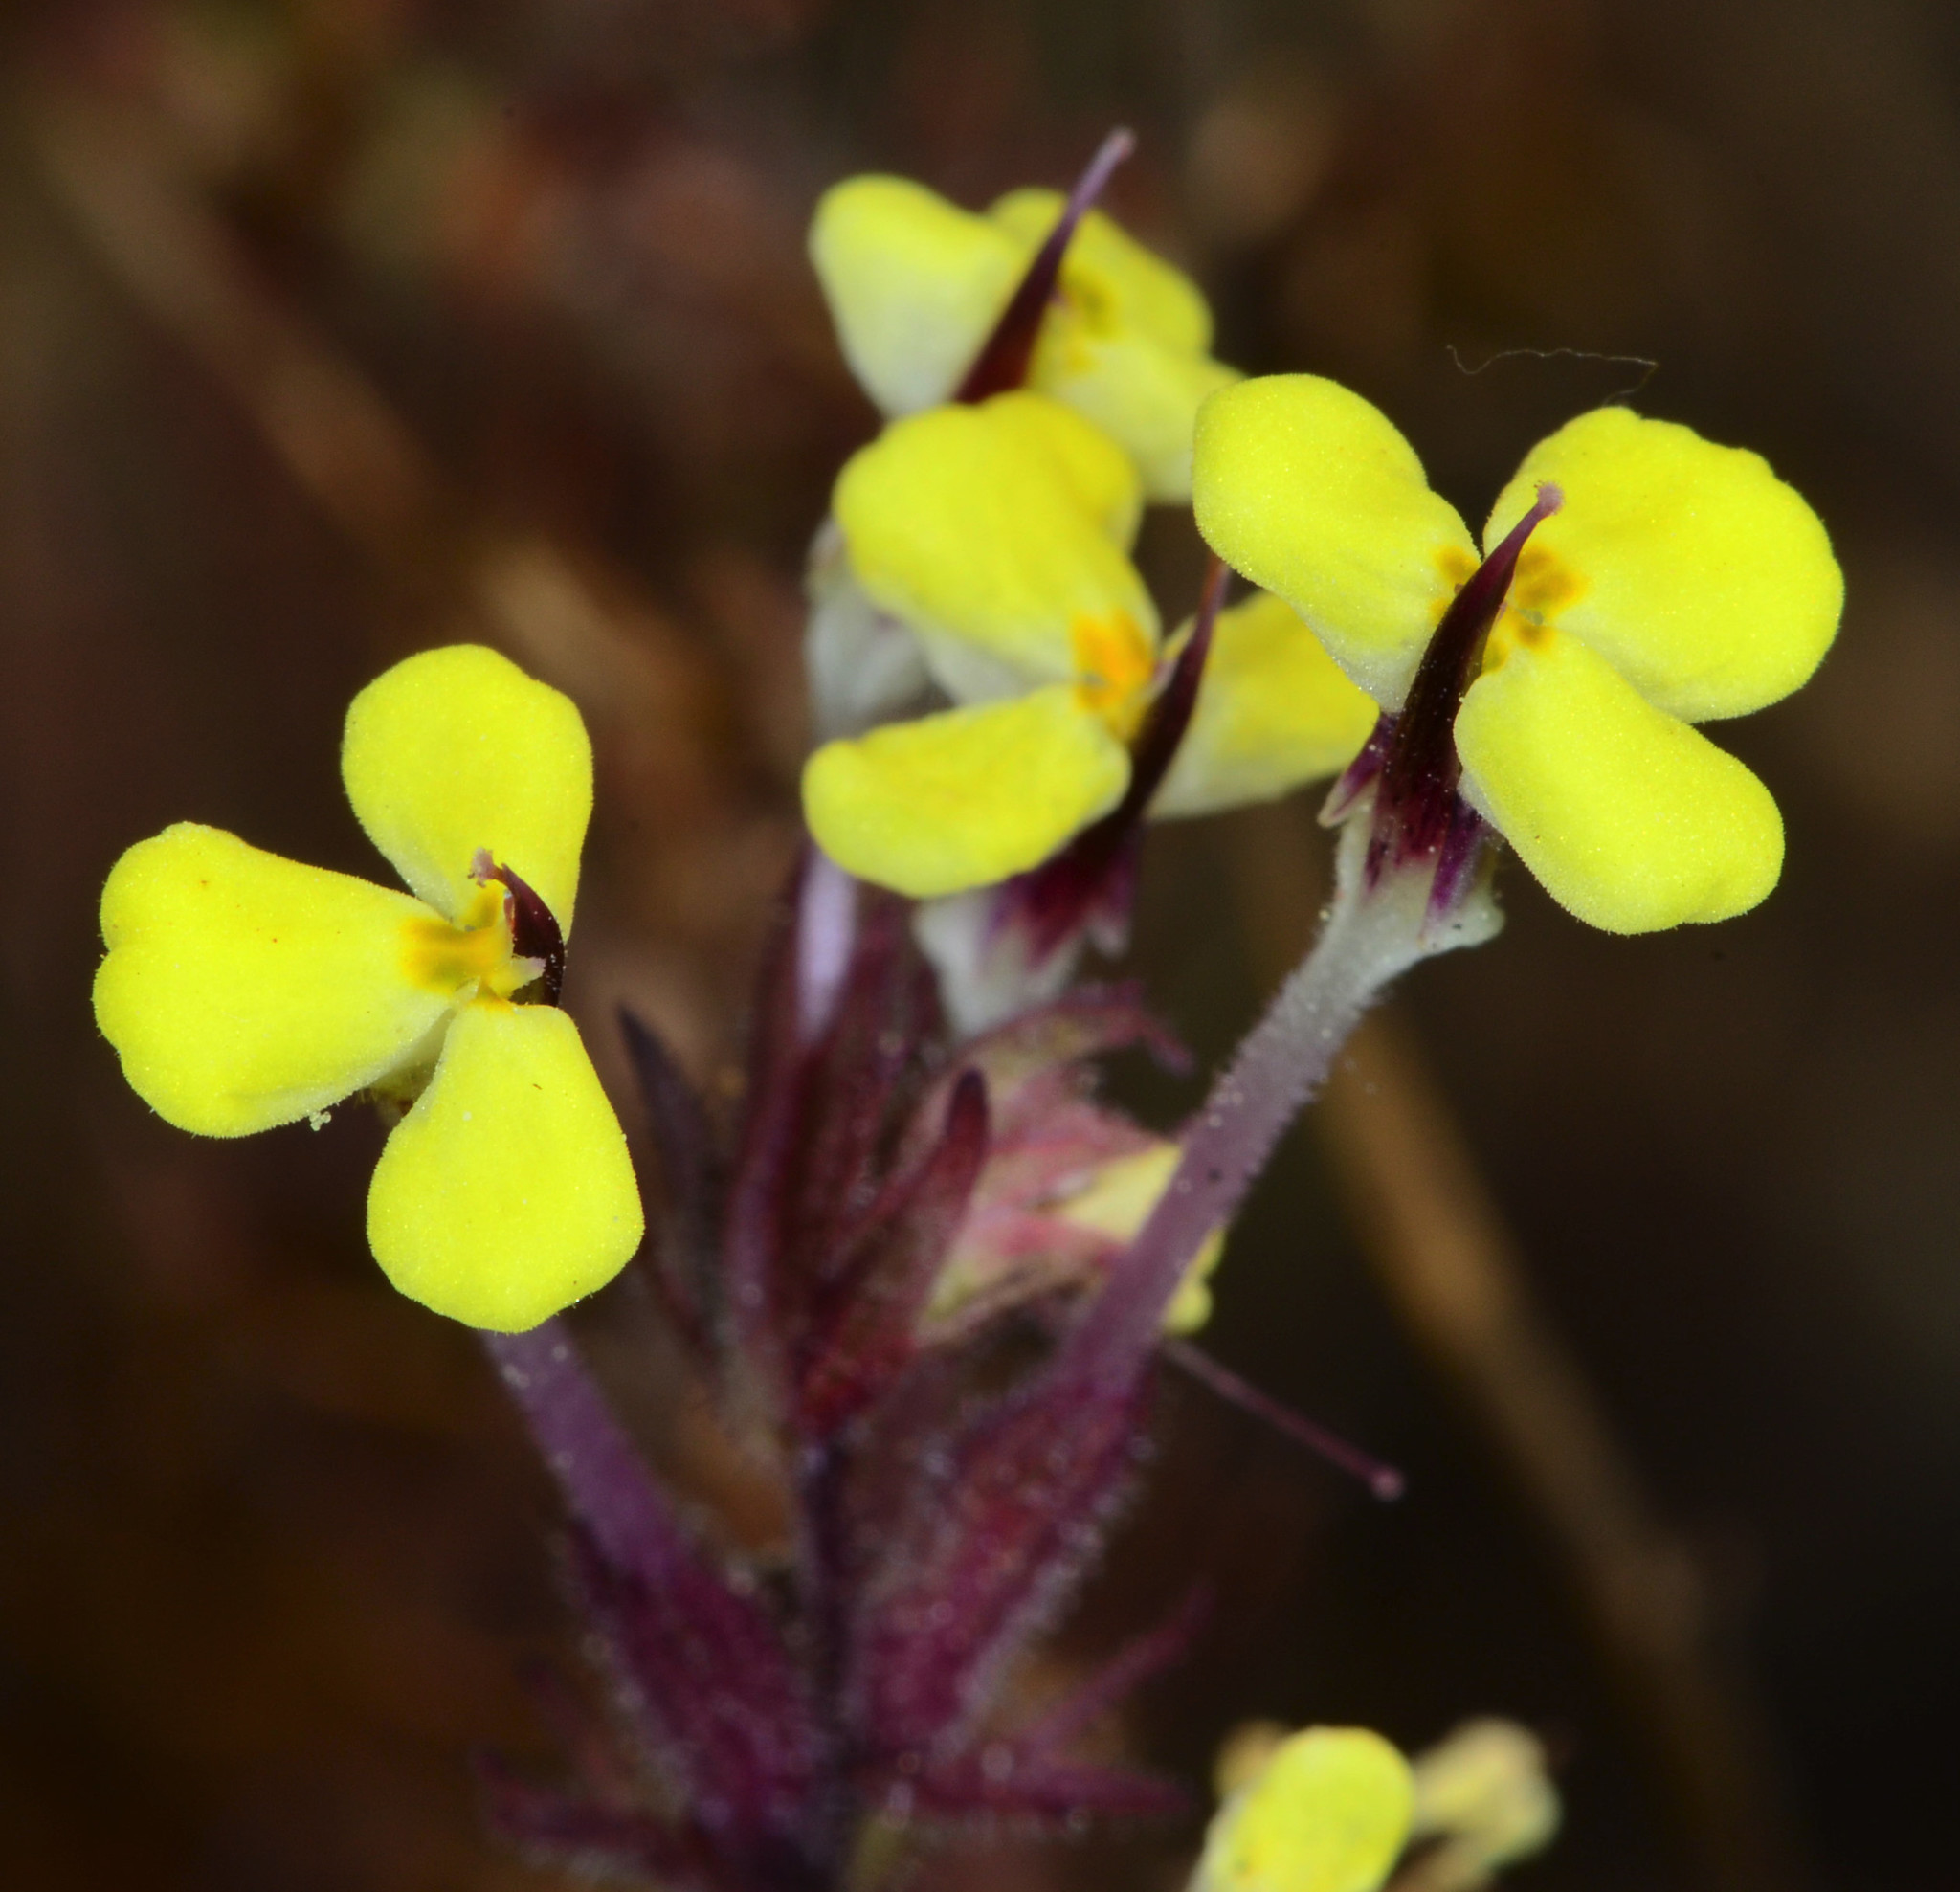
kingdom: Plantae
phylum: Tracheophyta
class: Magnoliopsida
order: Lamiales
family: Orobanchaceae
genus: Triphysaria
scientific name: Triphysaria eriantha
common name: Johnny-tuck
